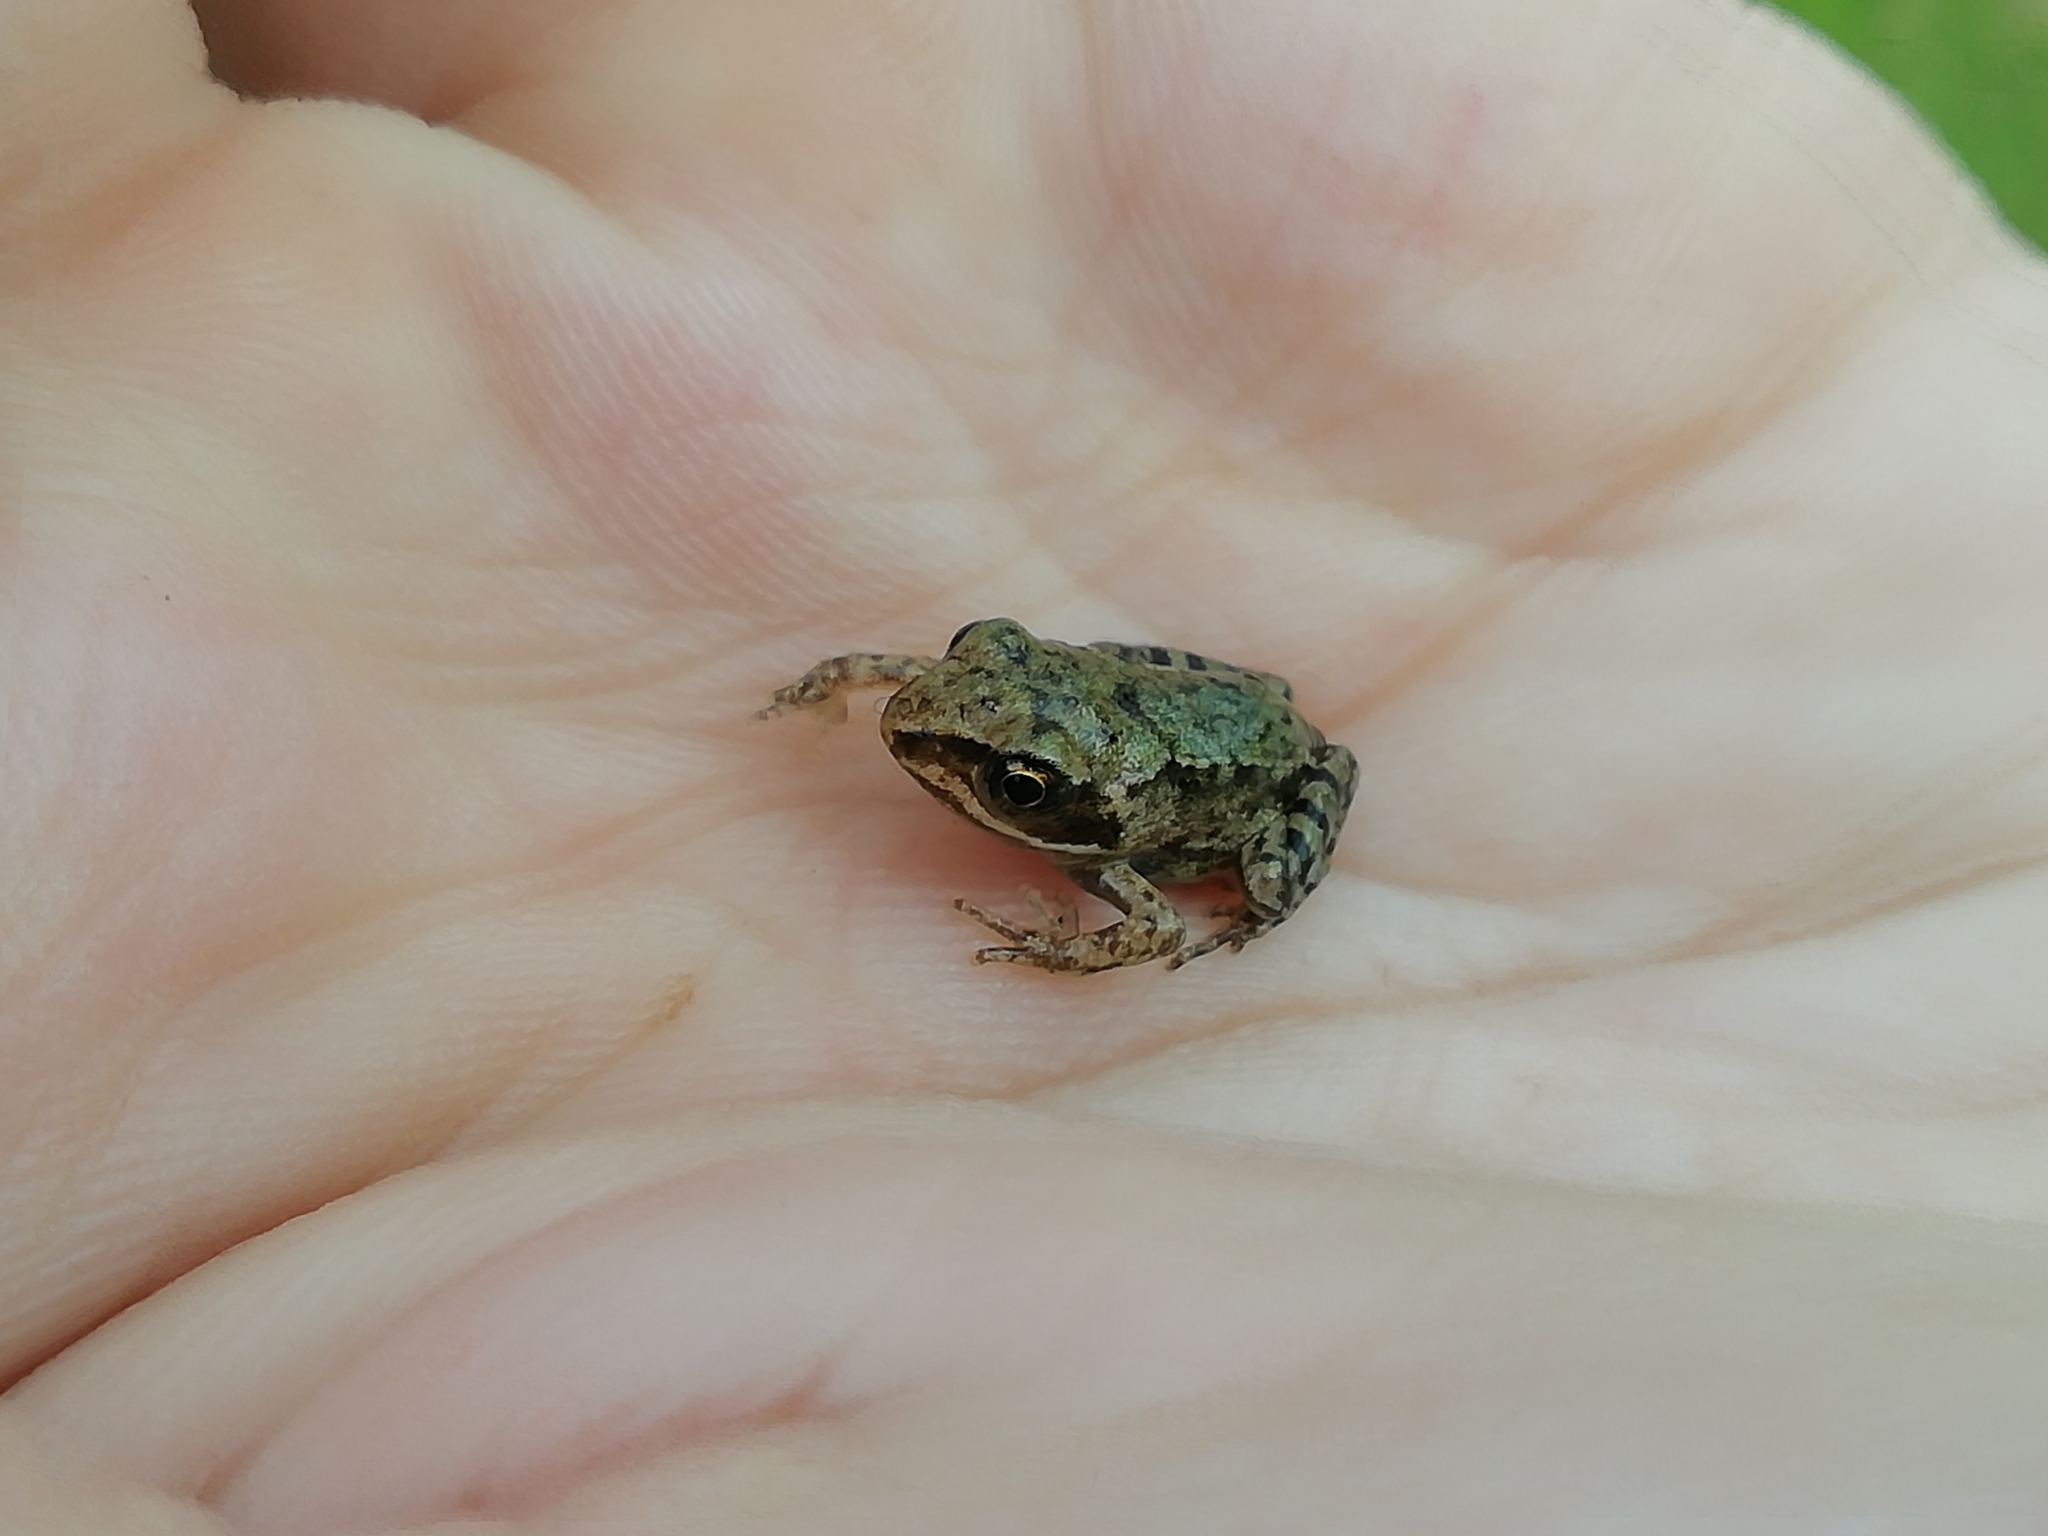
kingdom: Animalia
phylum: Chordata
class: Amphibia
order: Anura
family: Ranidae
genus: Rana
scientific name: Rana arvalis
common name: Moor frog
